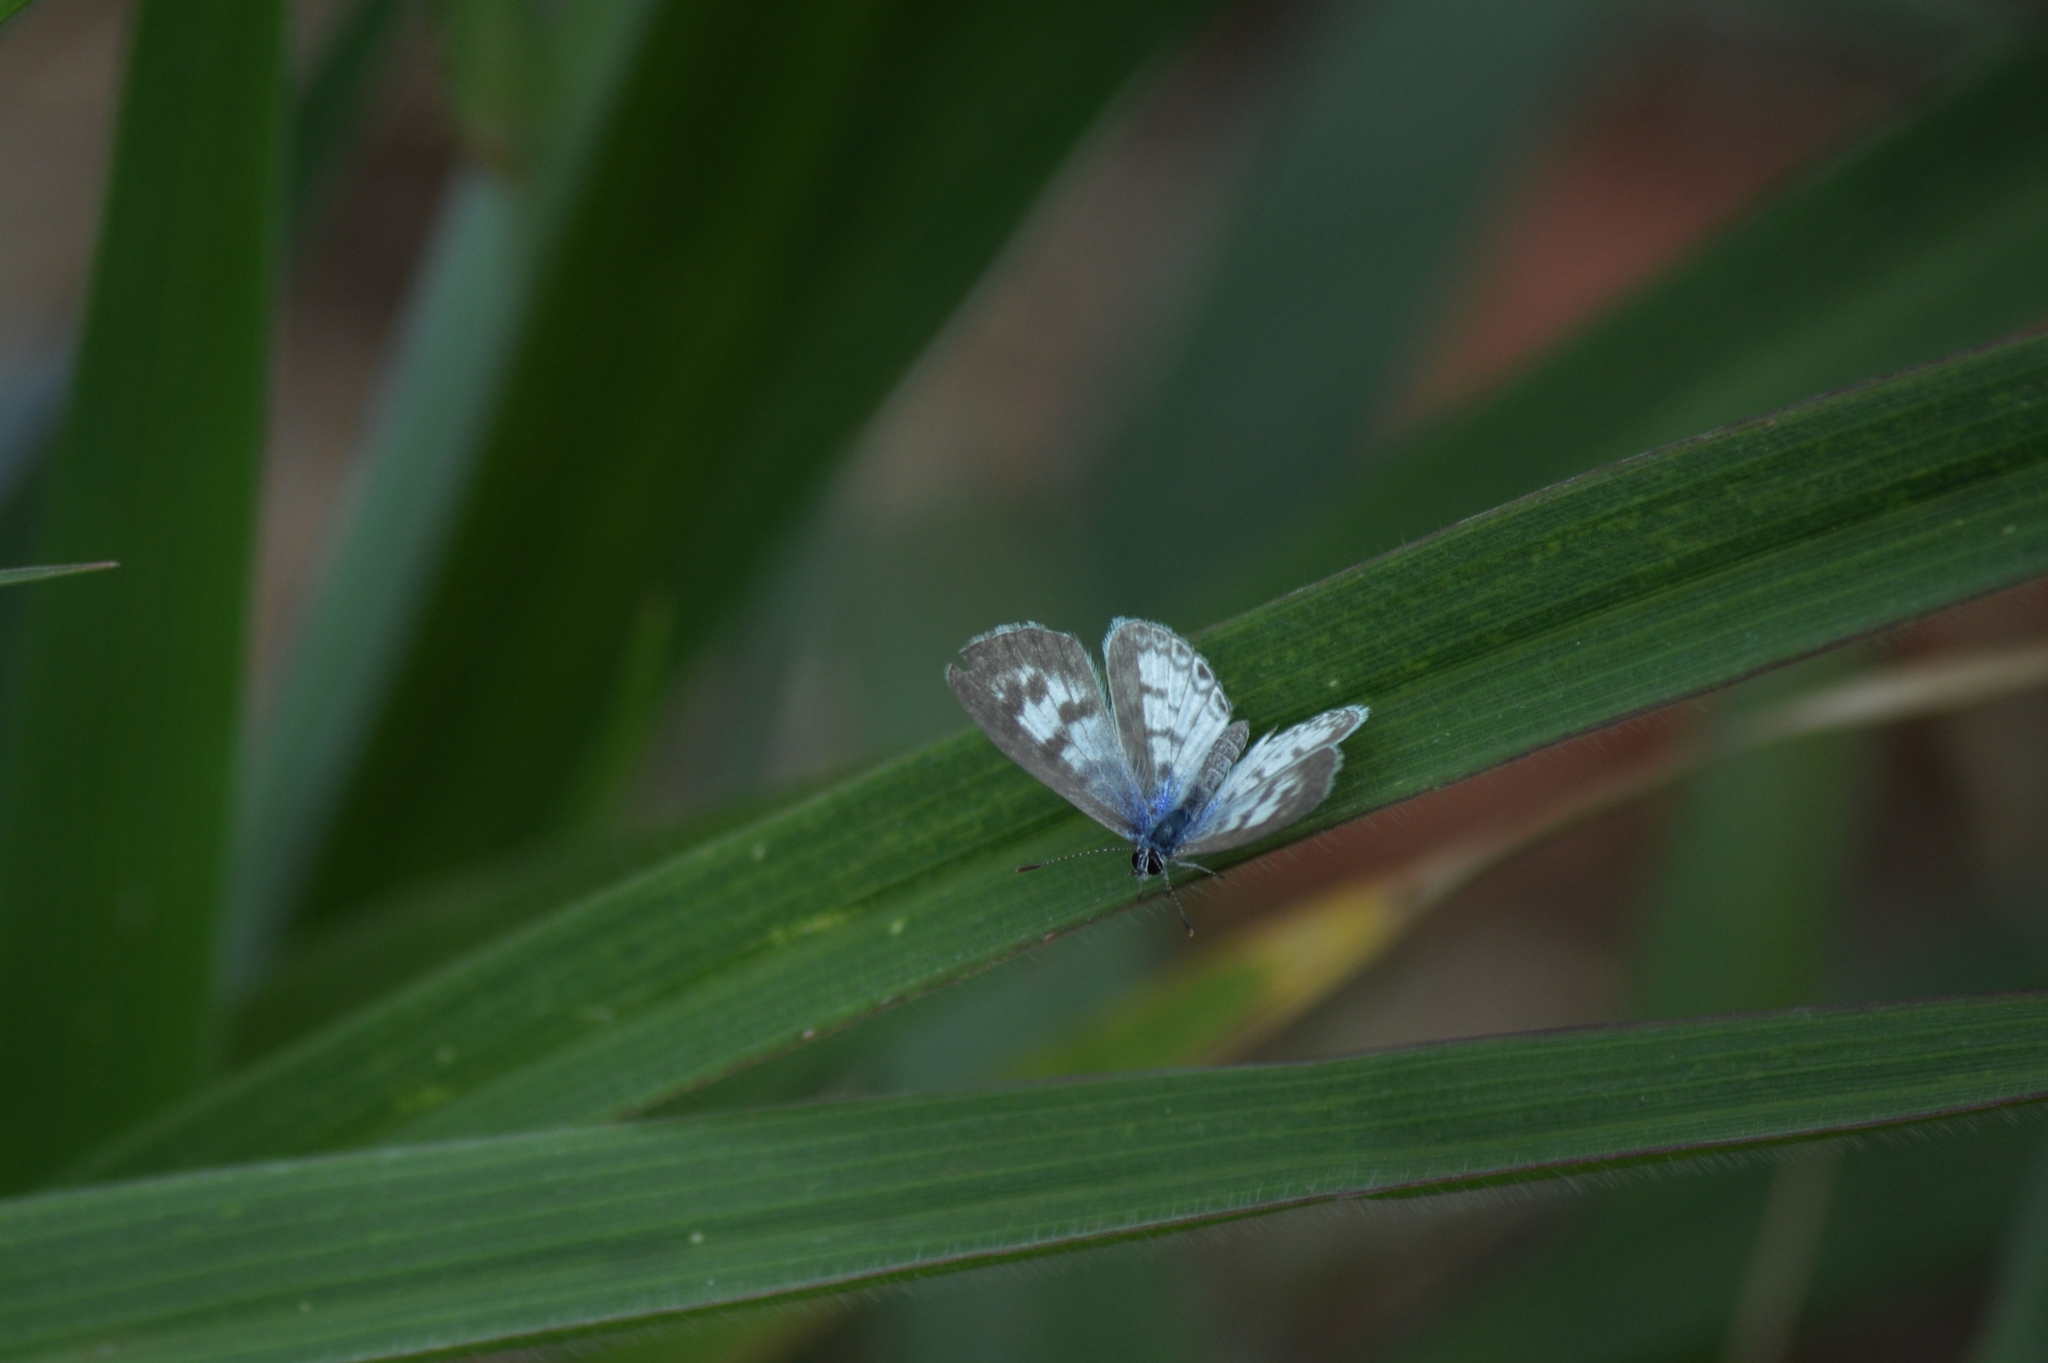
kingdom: Animalia
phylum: Arthropoda
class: Insecta
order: Lepidoptera
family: Lycaenidae
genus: Leptotes
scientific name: Leptotes cassius
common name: Cassius blue
